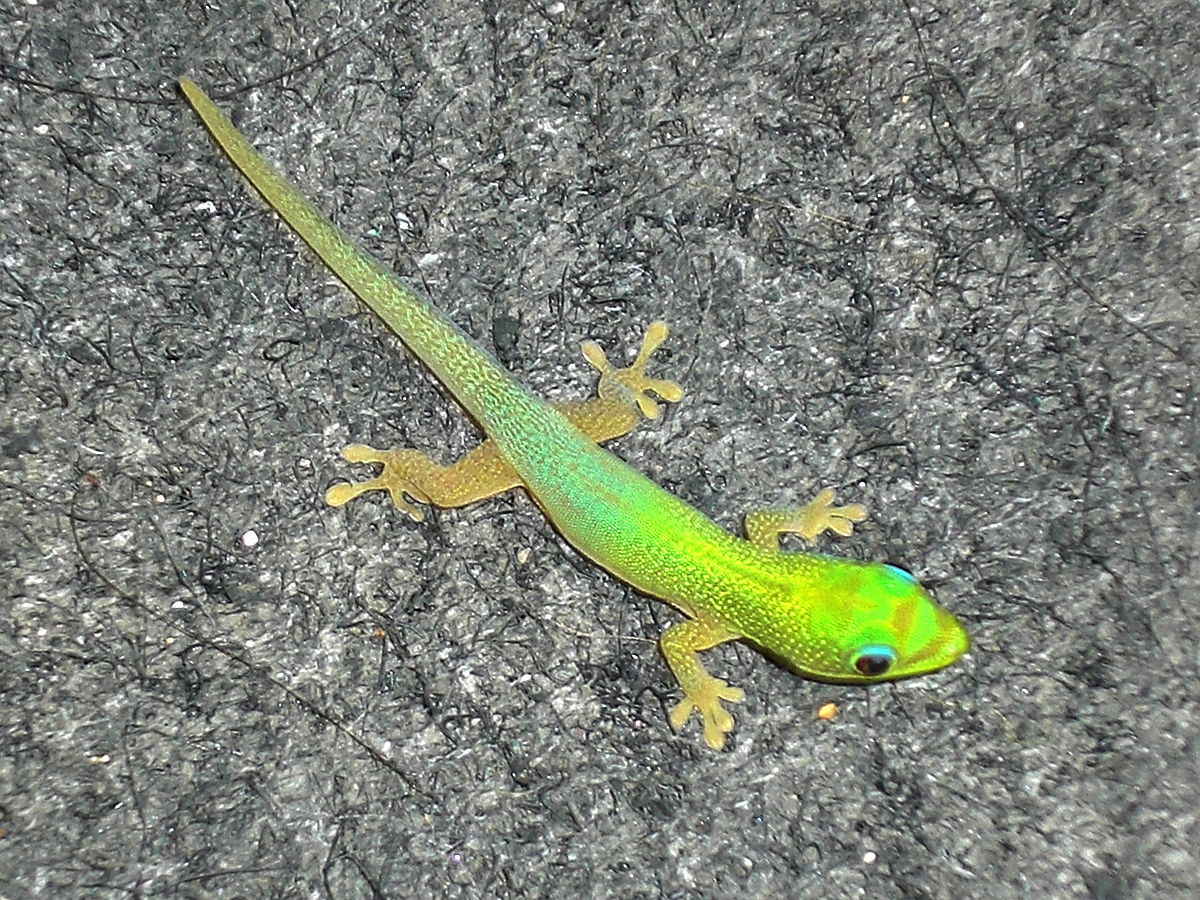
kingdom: Animalia
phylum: Chordata
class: Squamata
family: Gekkonidae
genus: Phelsuma
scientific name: Phelsuma laticauda
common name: Gold dust day gecko
